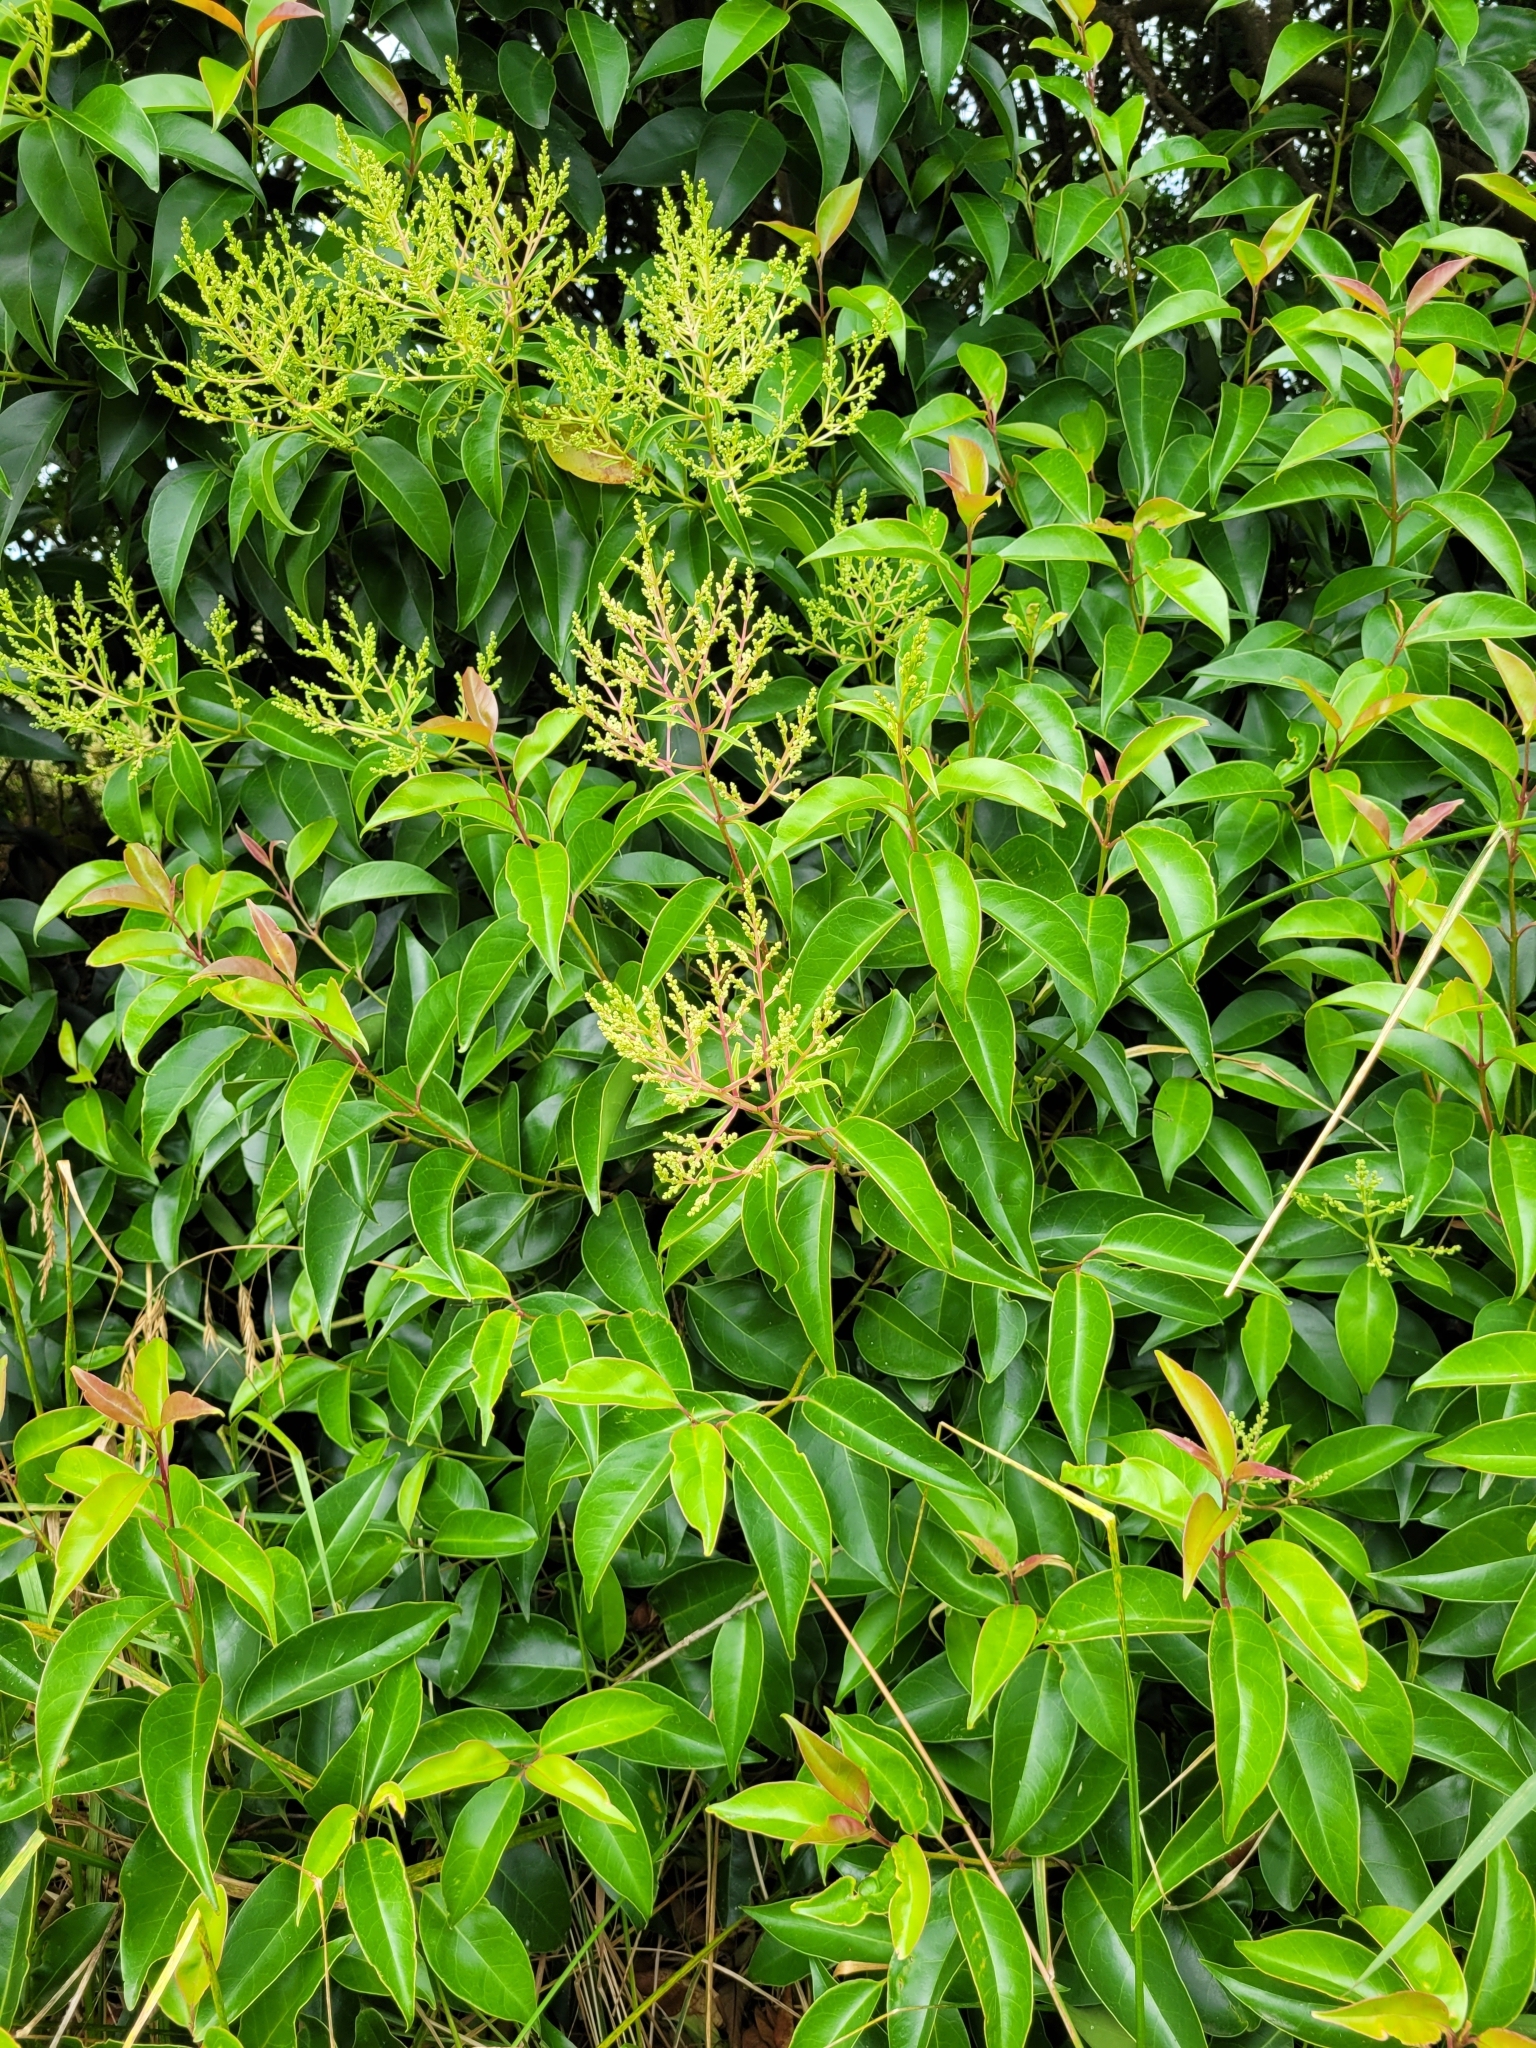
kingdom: Plantae
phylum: Tracheophyta
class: Magnoliopsida
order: Lamiales
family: Oleaceae
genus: Ligustrum
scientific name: Ligustrum lucidum
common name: Glossy privet
